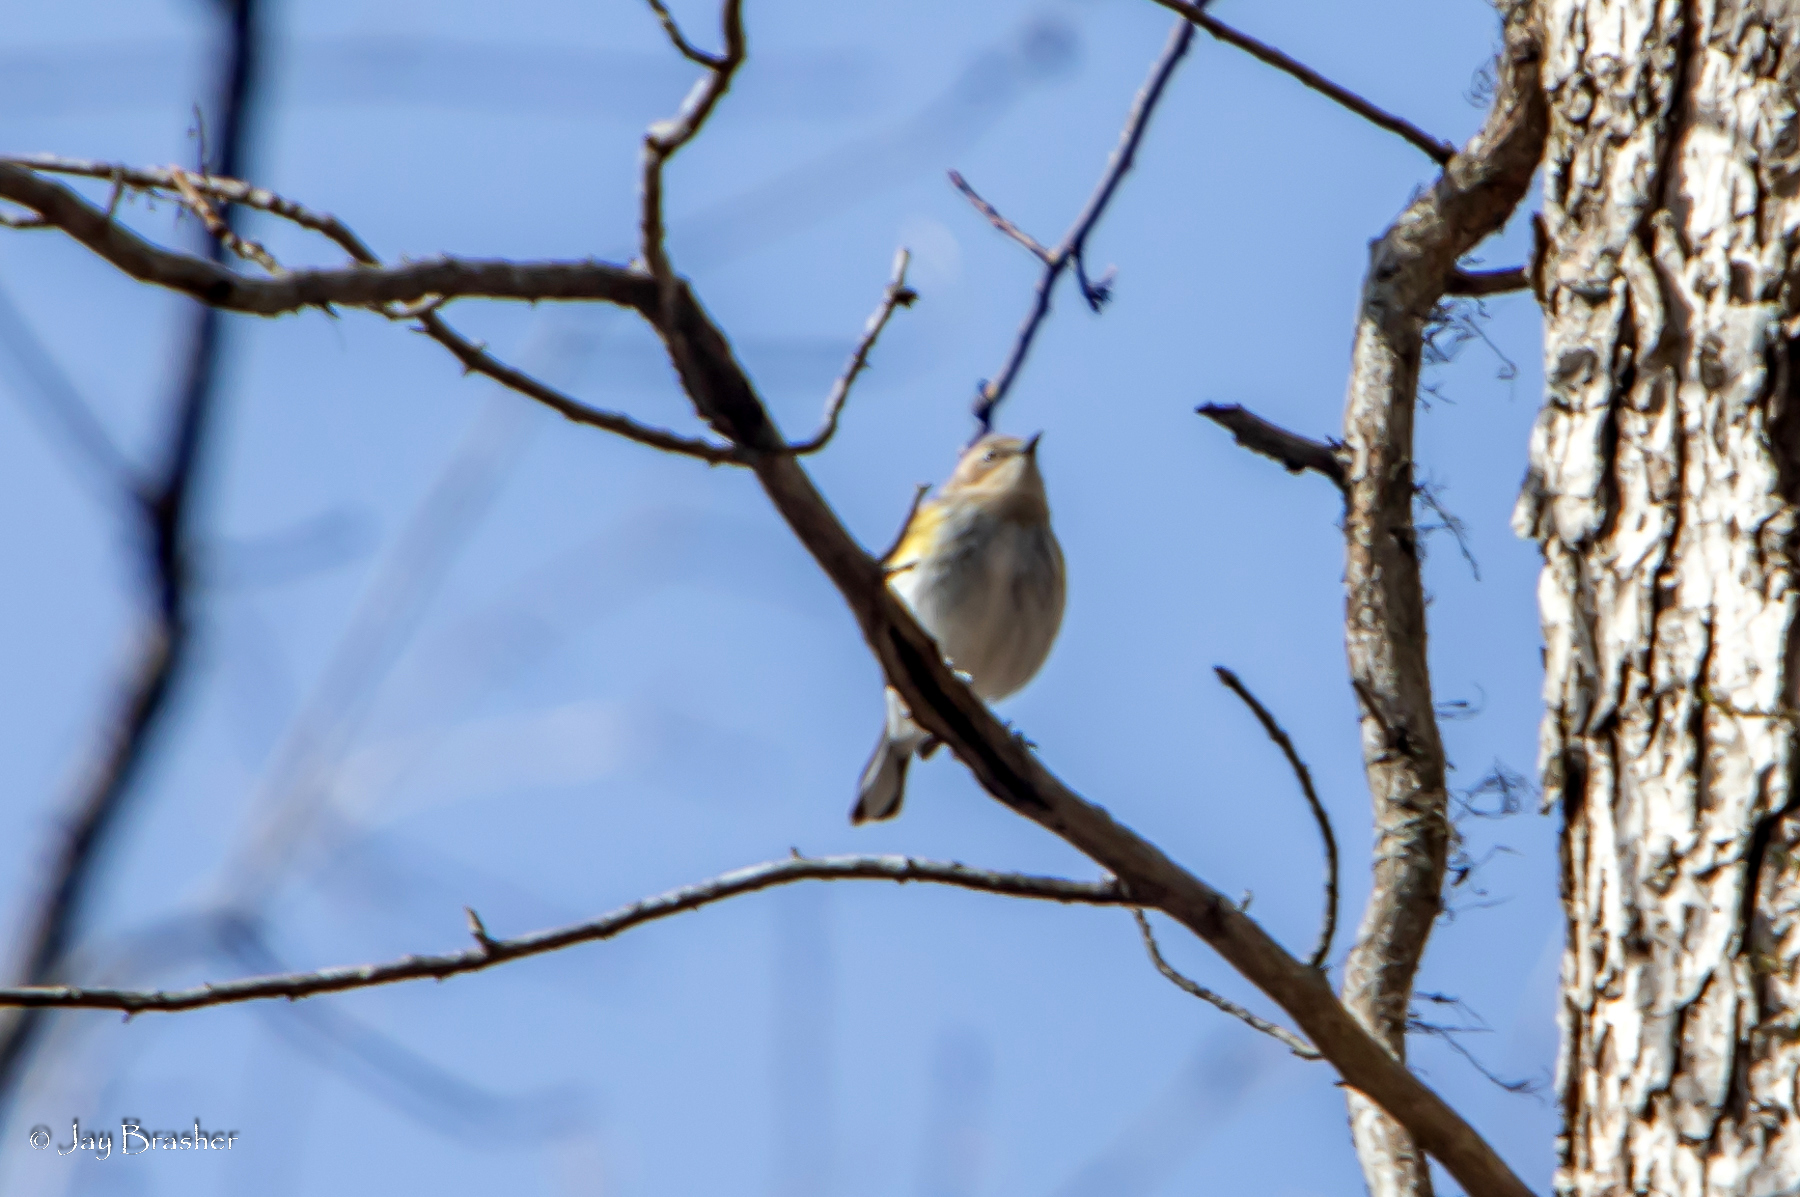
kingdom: Animalia
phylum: Chordata
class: Aves
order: Passeriformes
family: Parulidae
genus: Setophaga
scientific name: Setophaga coronata
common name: Myrtle warbler
